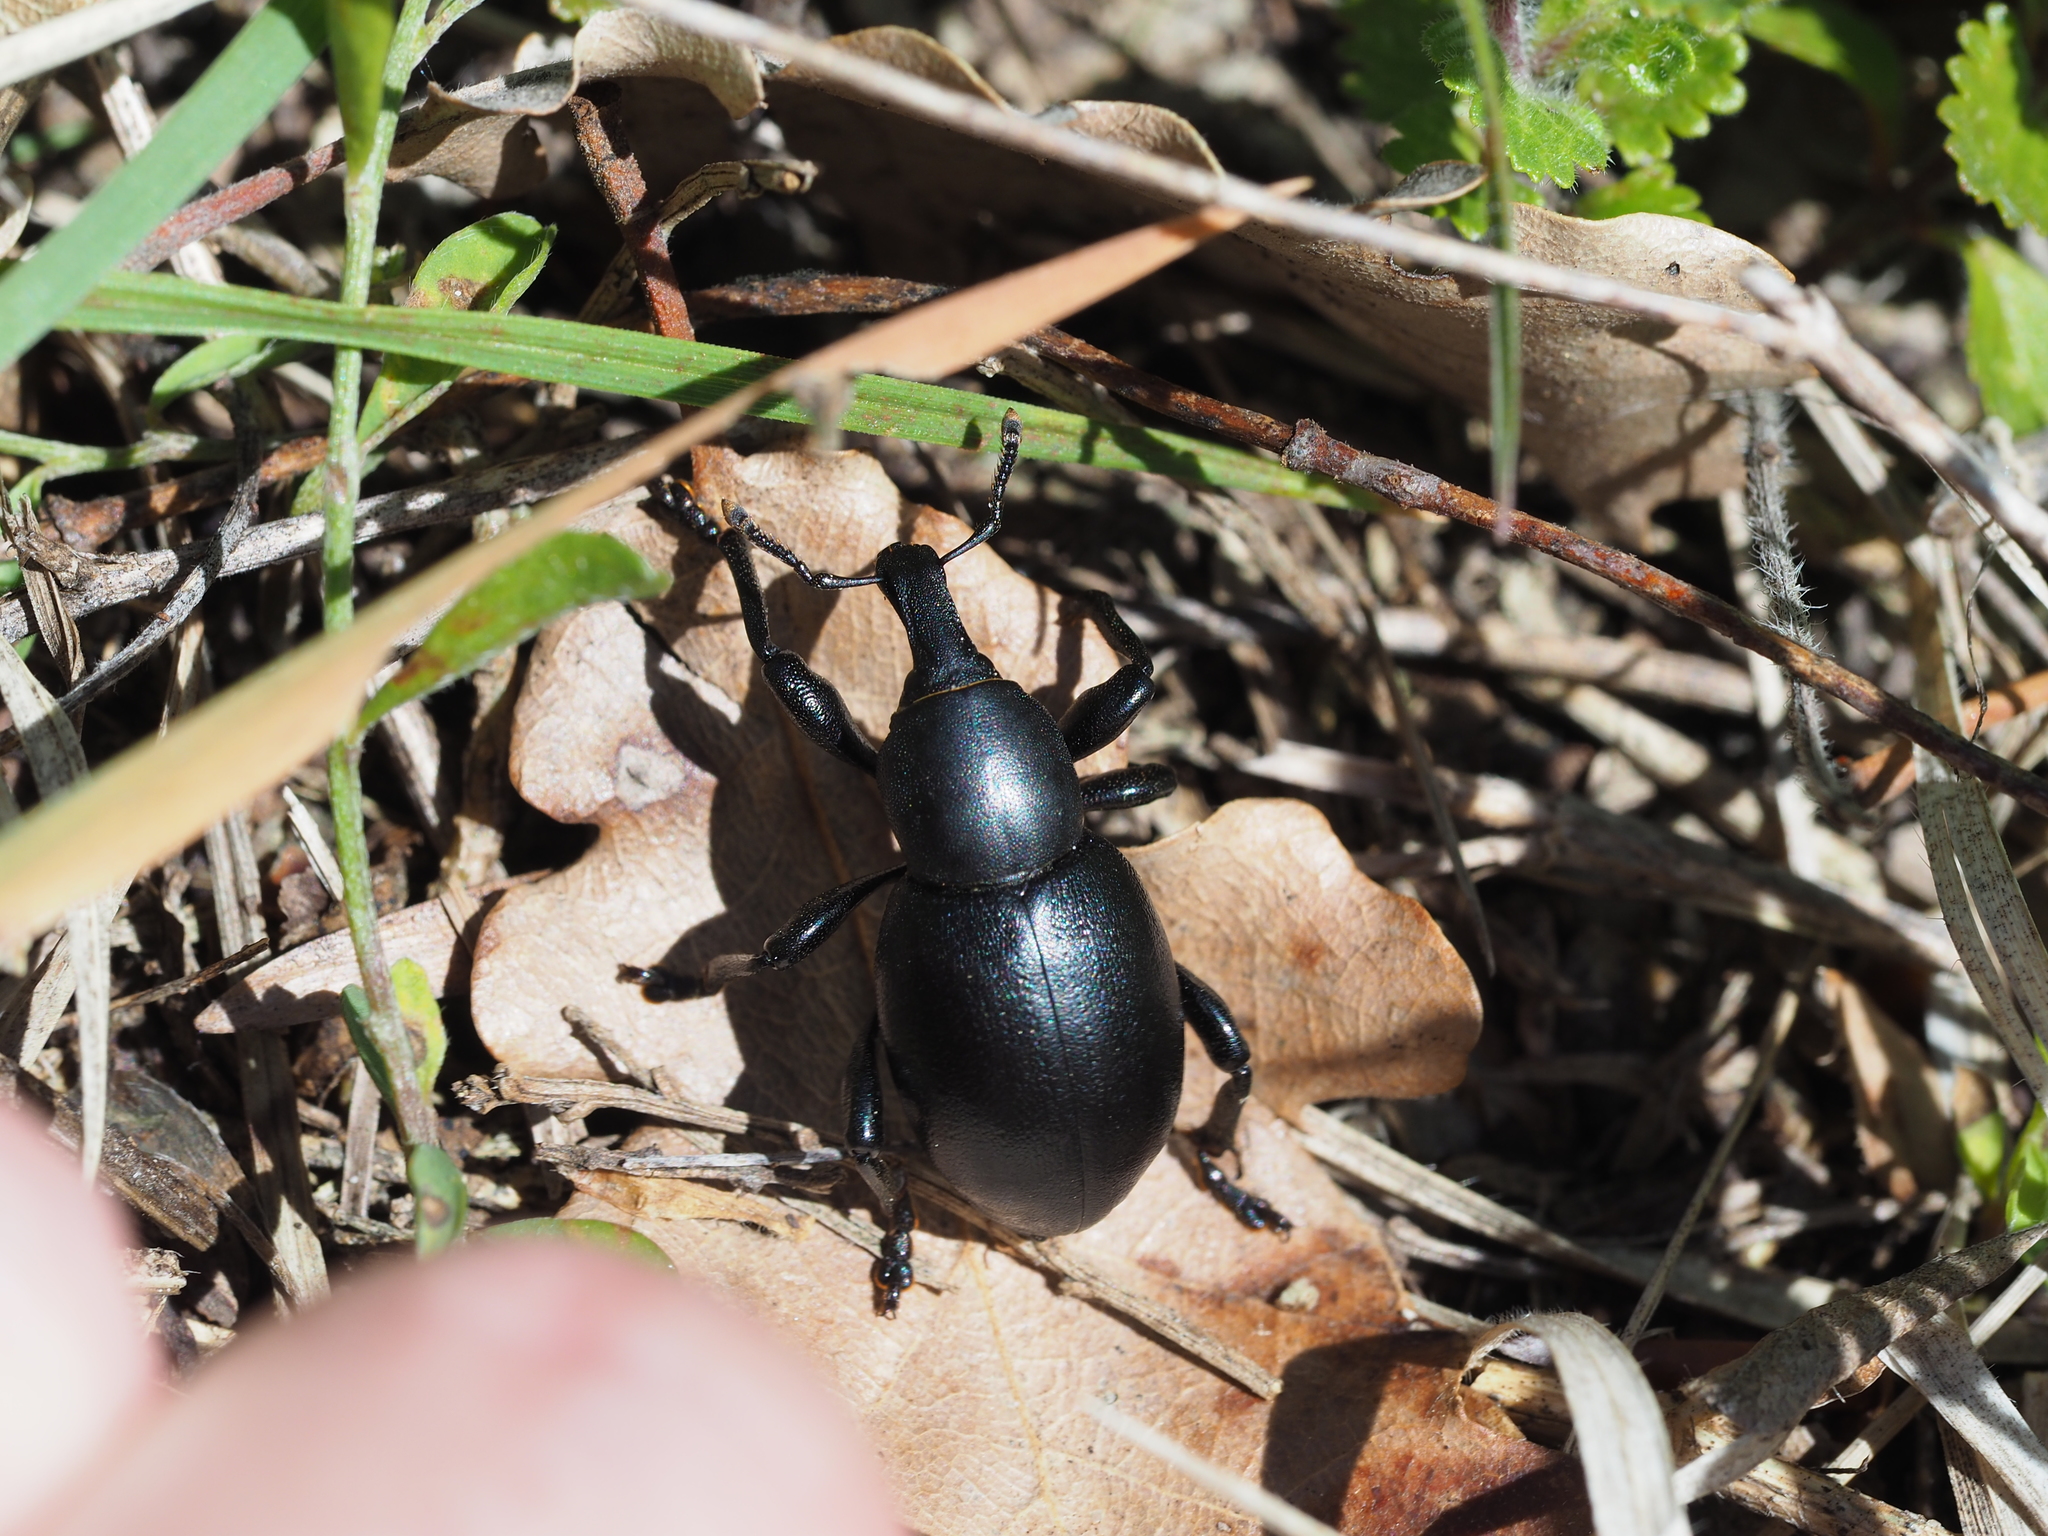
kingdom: Animalia
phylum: Arthropoda
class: Insecta
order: Coleoptera
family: Curculionidae
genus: Liparus
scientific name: Liparus dirus
